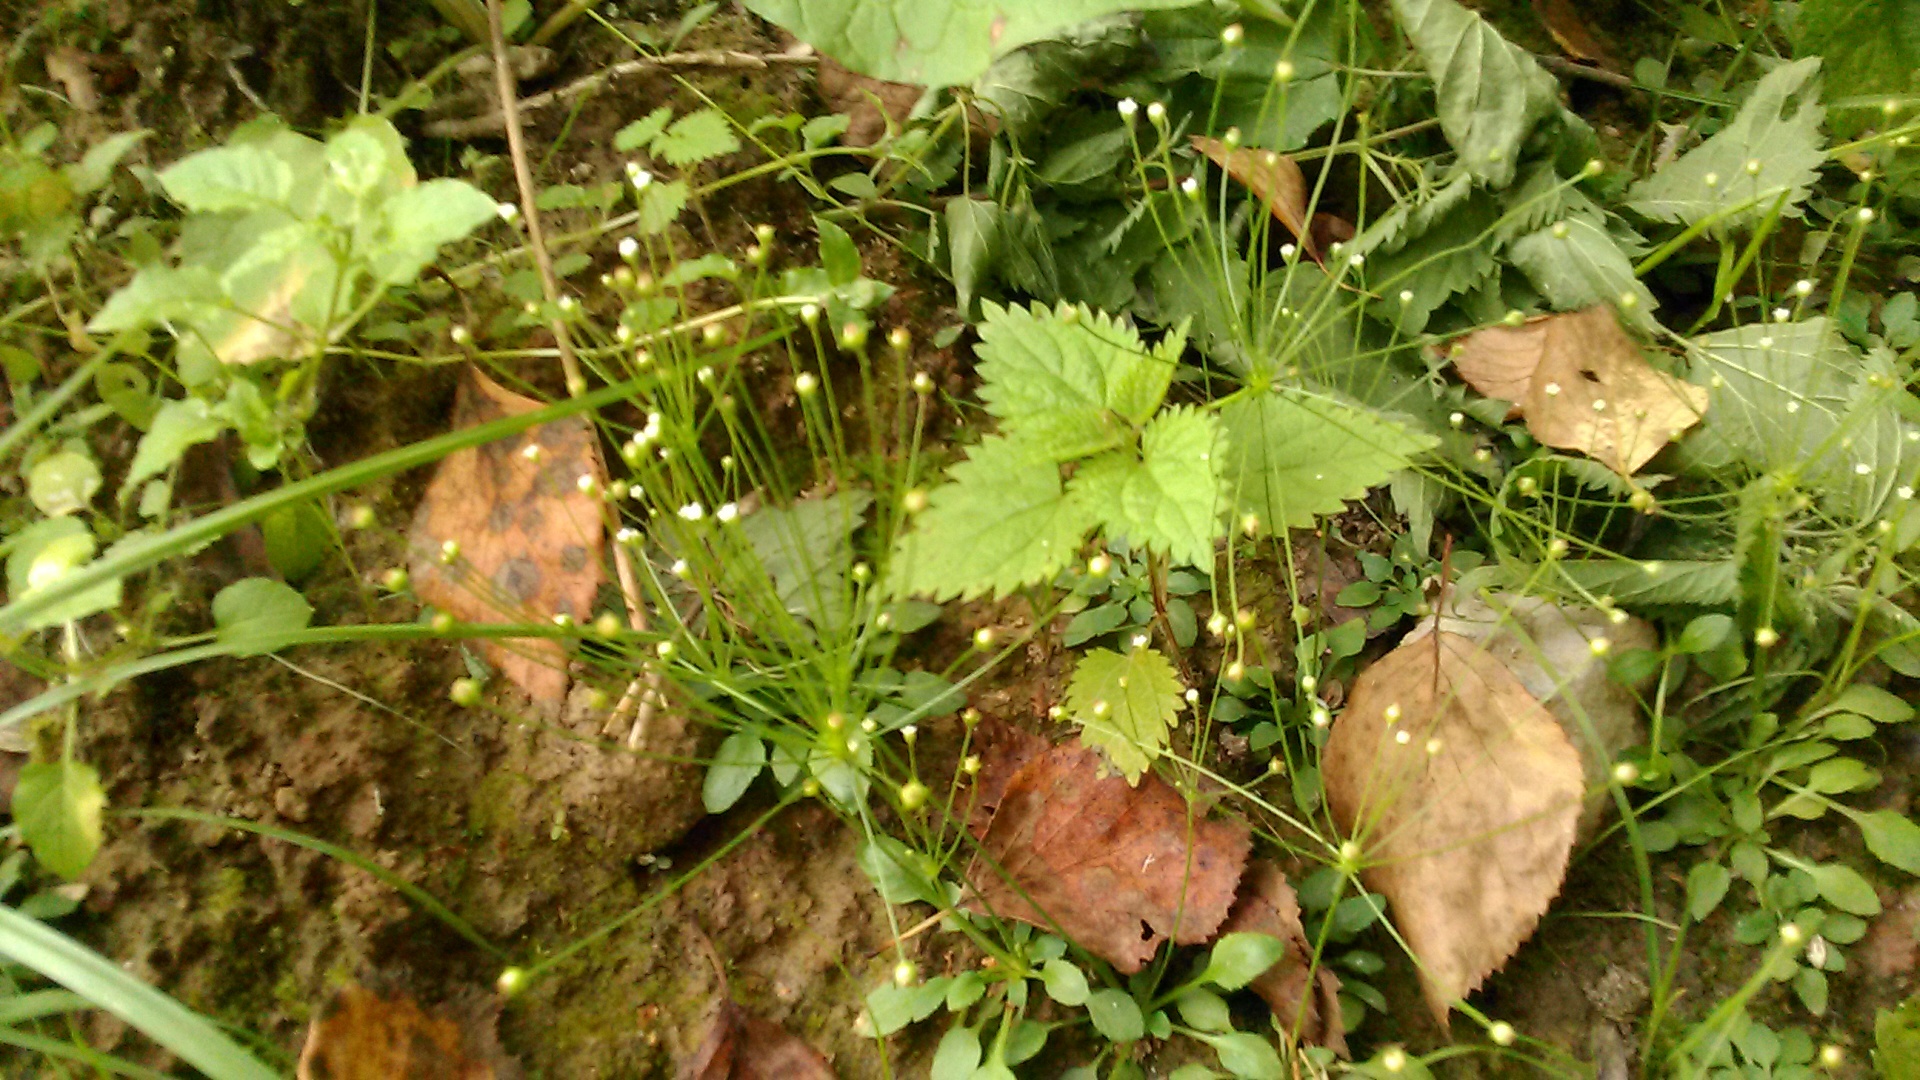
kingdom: Plantae
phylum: Tracheophyta
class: Magnoliopsida
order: Ericales
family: Primulaceae
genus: Androsace
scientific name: Androsace filiformis
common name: Filiform rock jasmine
